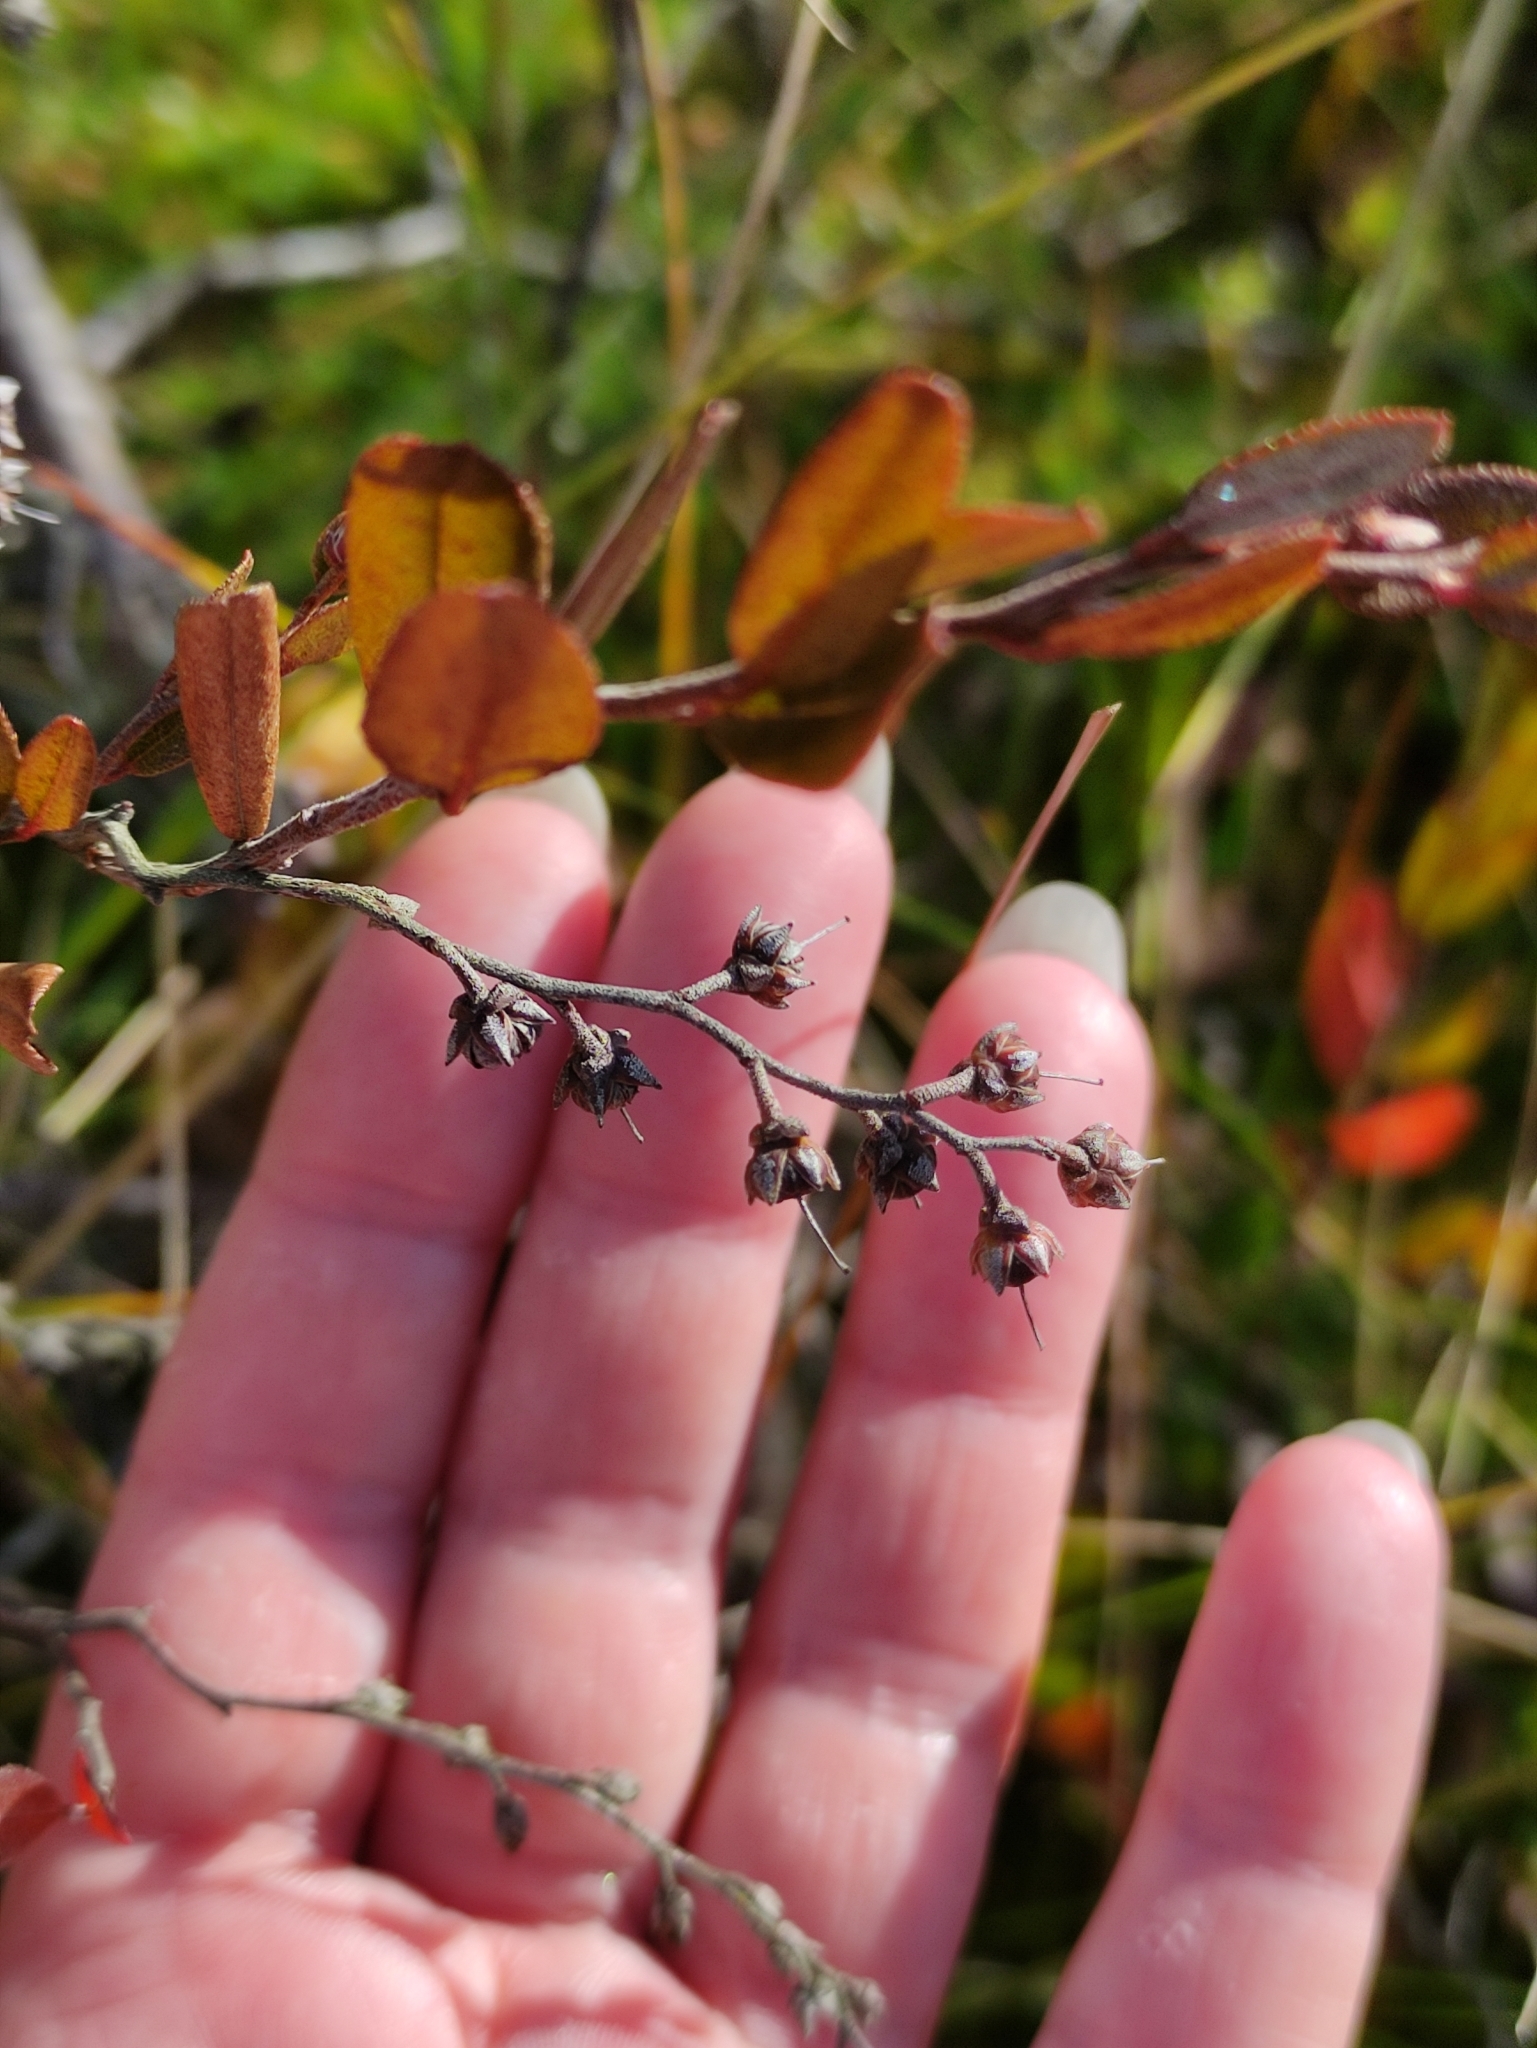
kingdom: Plantae
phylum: Tracheophyta
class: Magnoliopsida
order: Ericales
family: Ericaceae
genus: Chamaedaphne
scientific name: Chamaedaphne calyculata
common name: Leatherleaf
